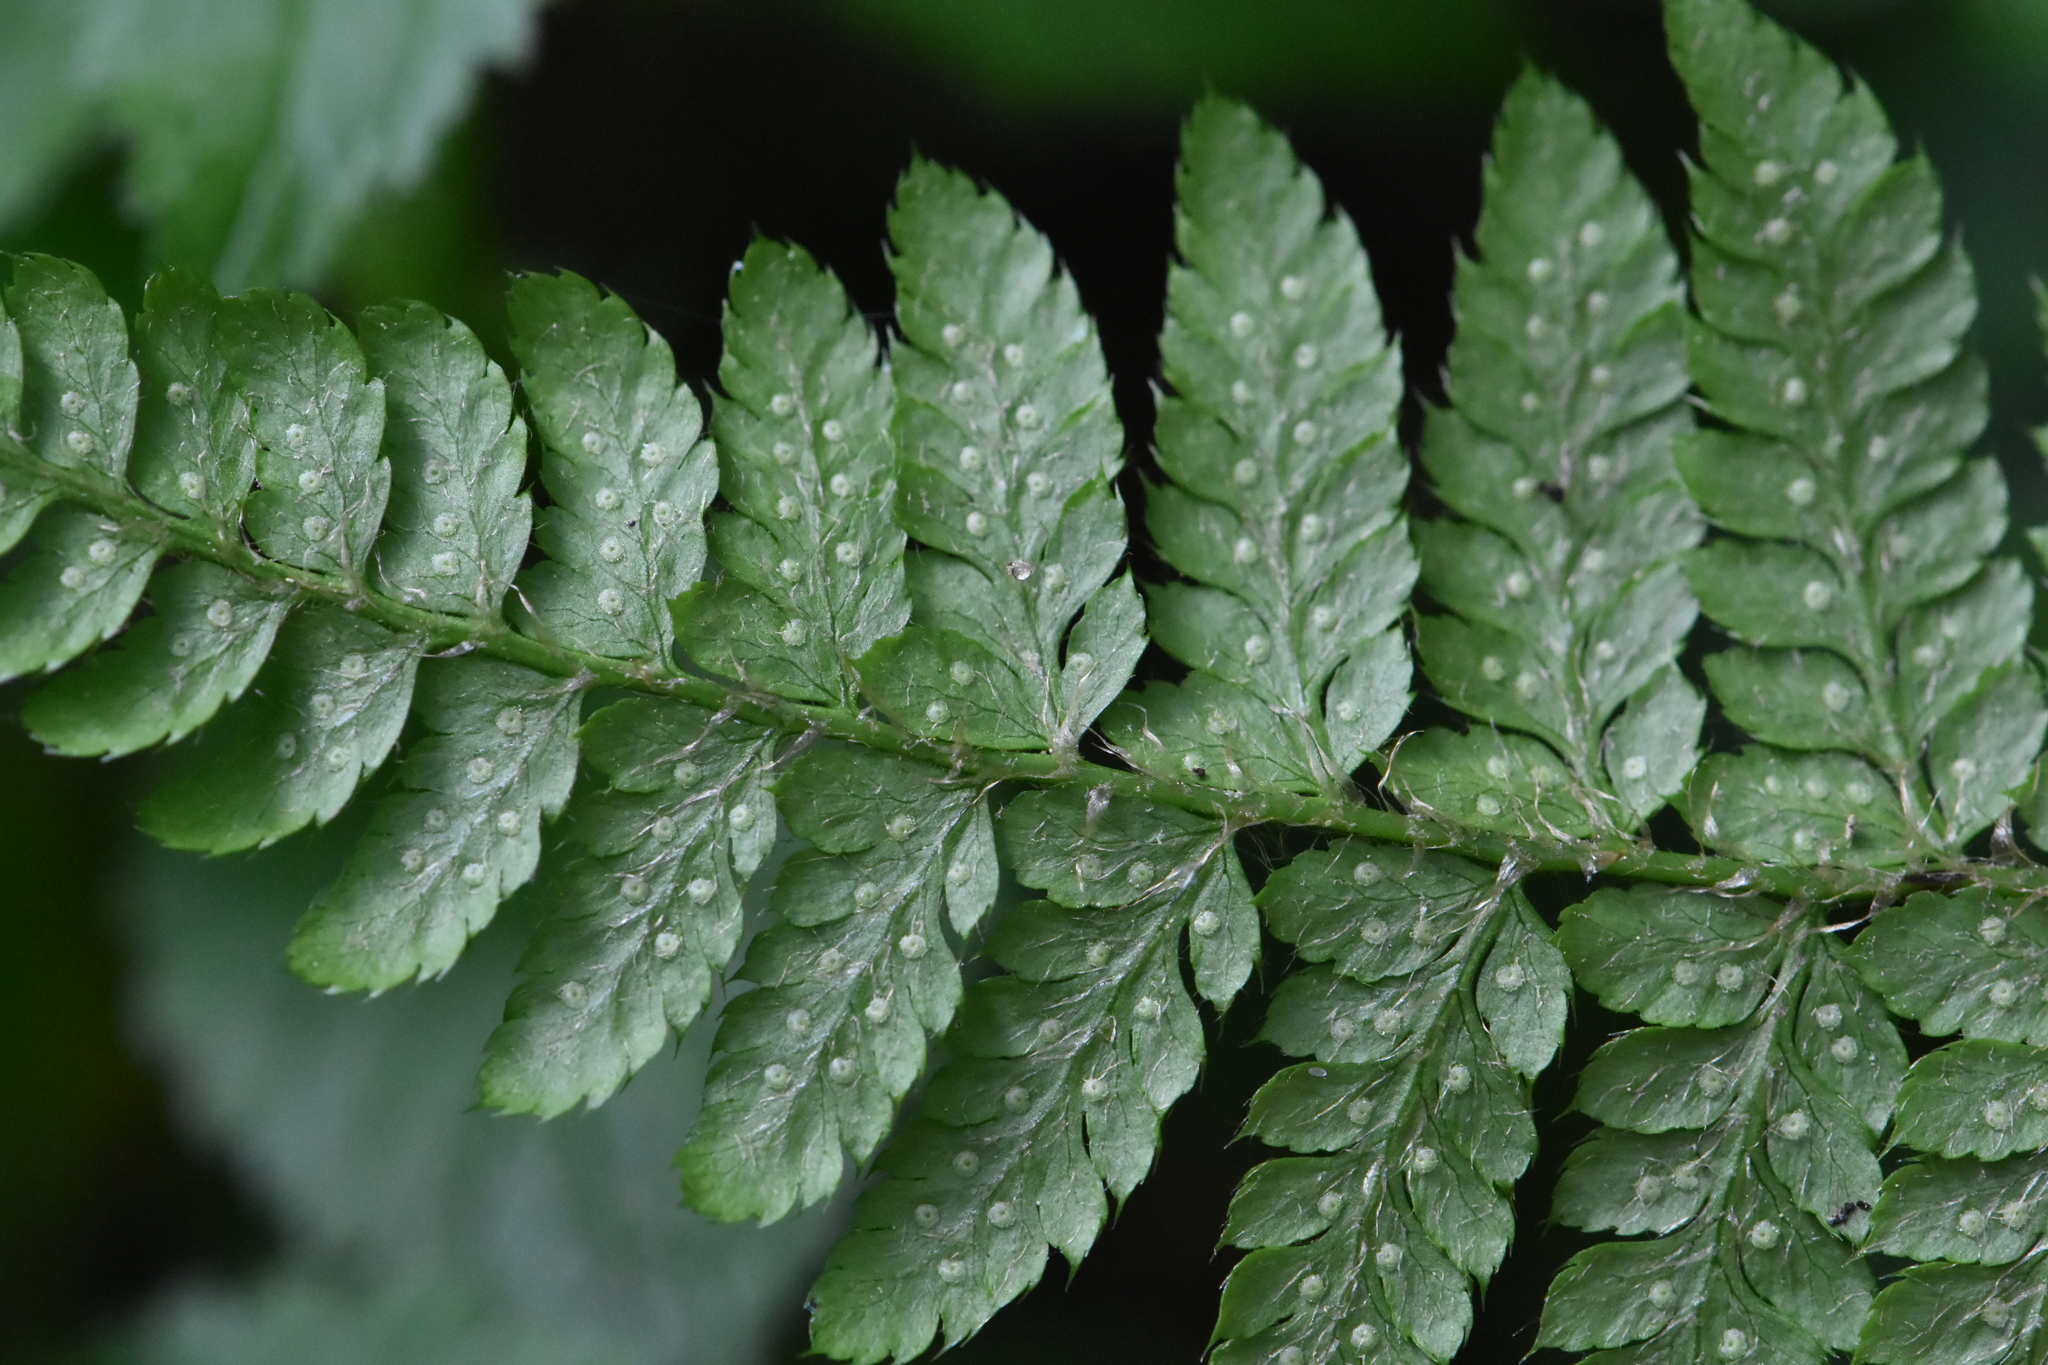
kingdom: Plantae
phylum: Tracheophyta
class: Polypodiopsida
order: Polypodiales
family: Dryopteridaceae
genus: Polystichum
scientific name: Polystichum braunii
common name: Braun's holly fern
